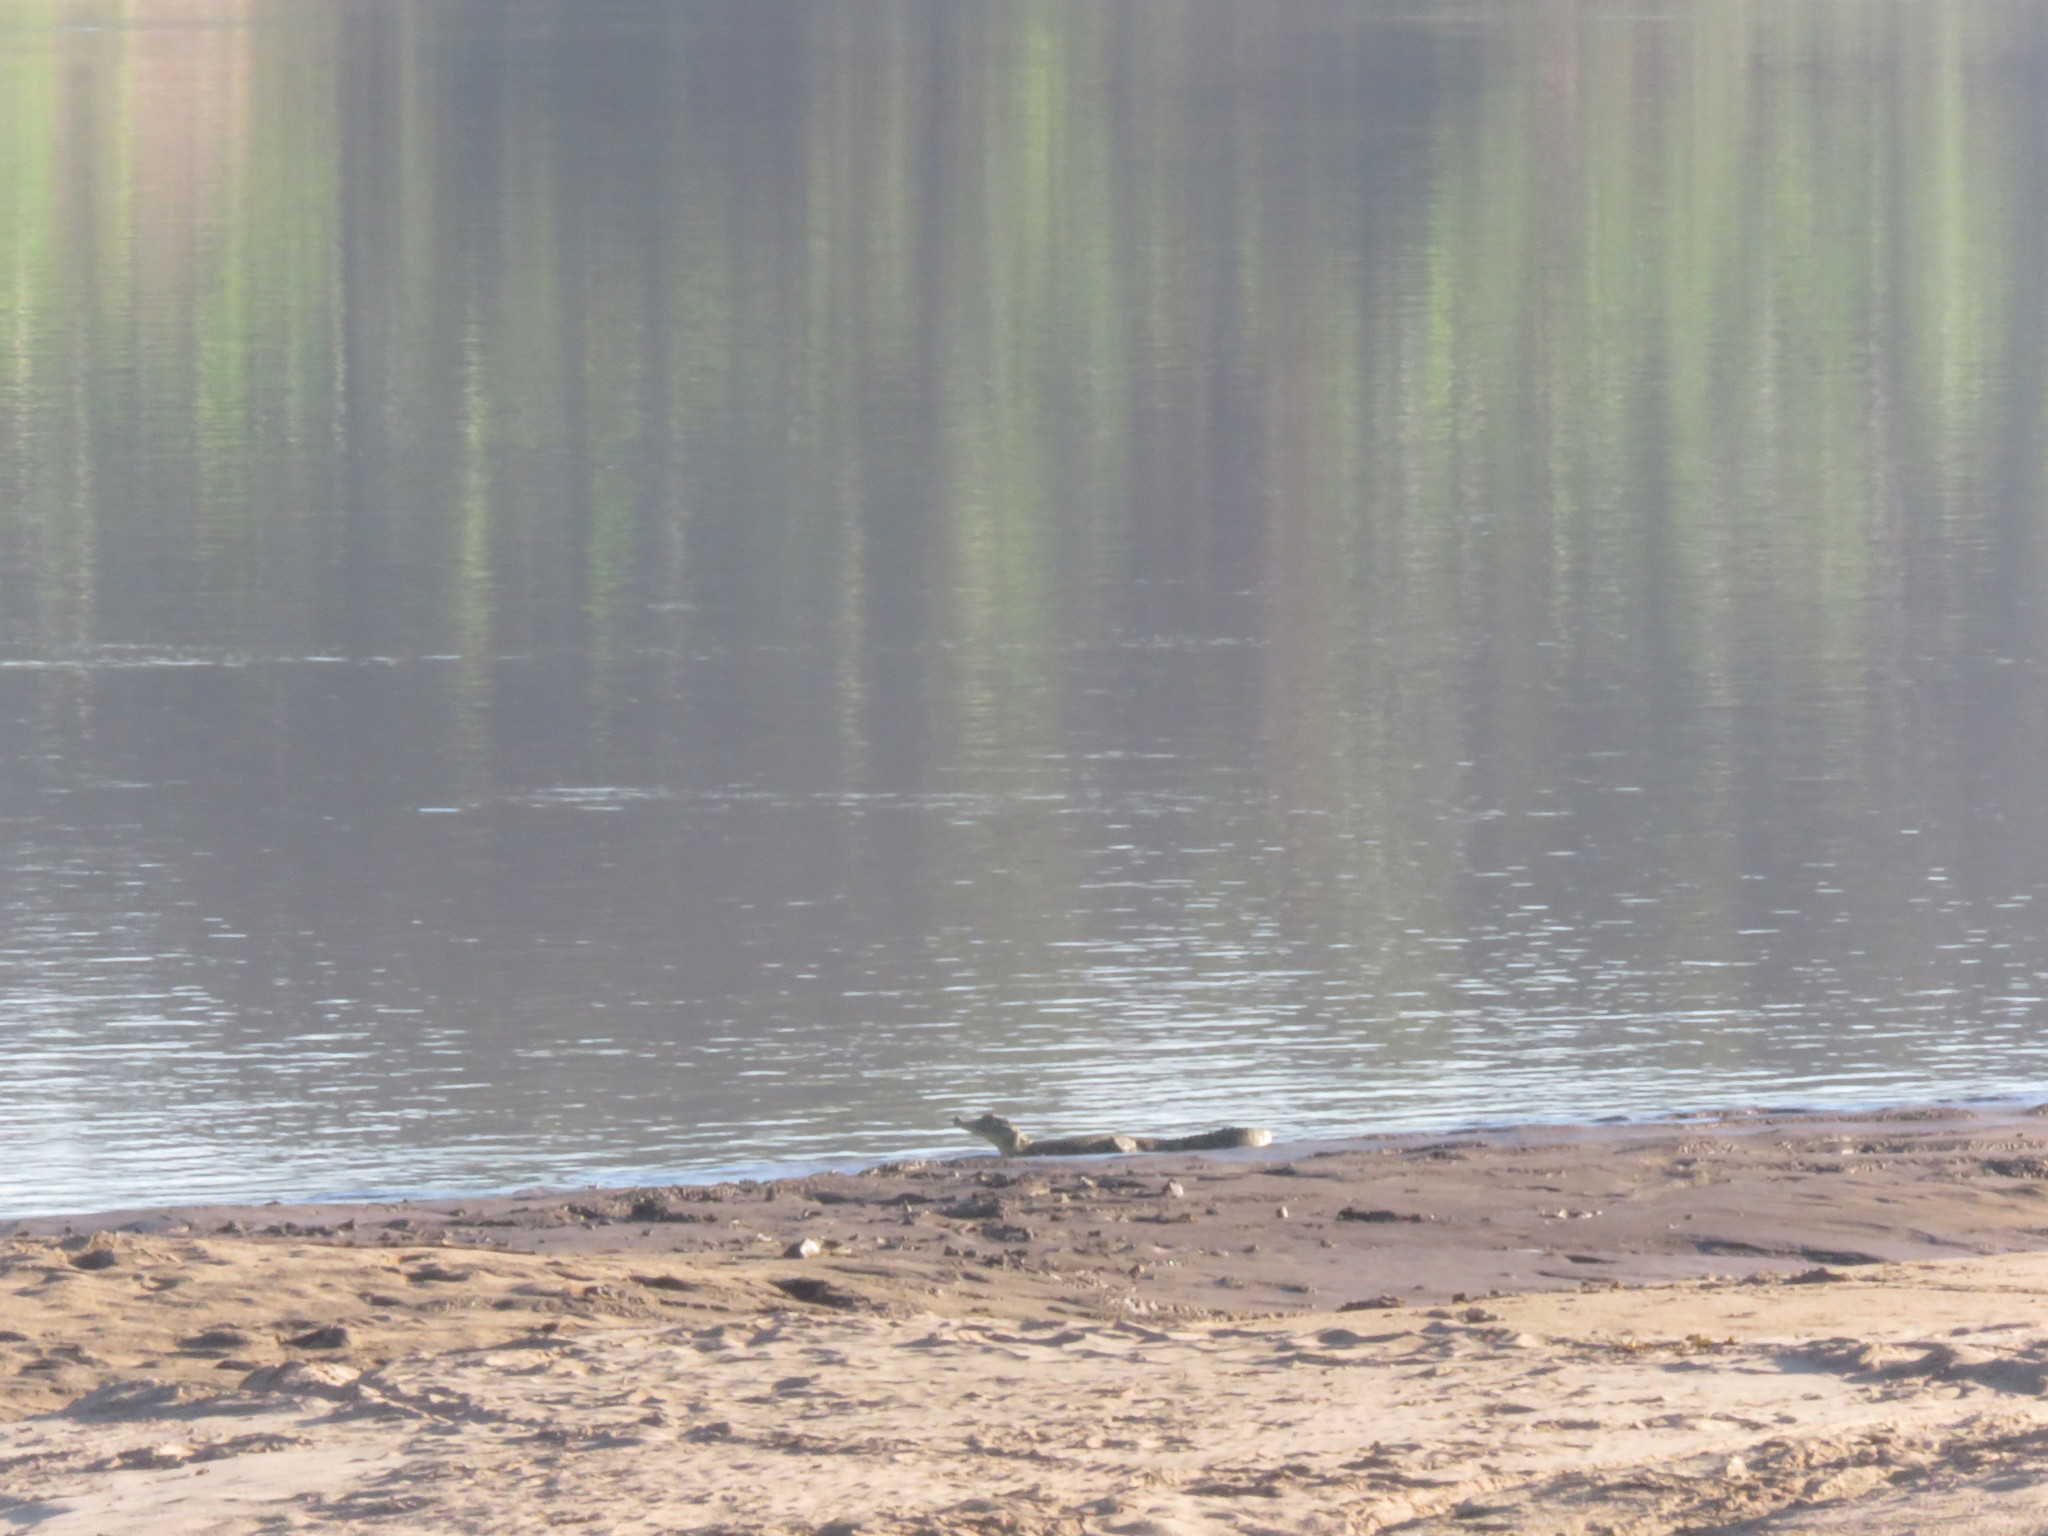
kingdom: Animalia
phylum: Chordata
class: Crocodylia
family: Alligatoridae
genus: Caiman
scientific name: Caiman yacare
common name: Yacare caiman
